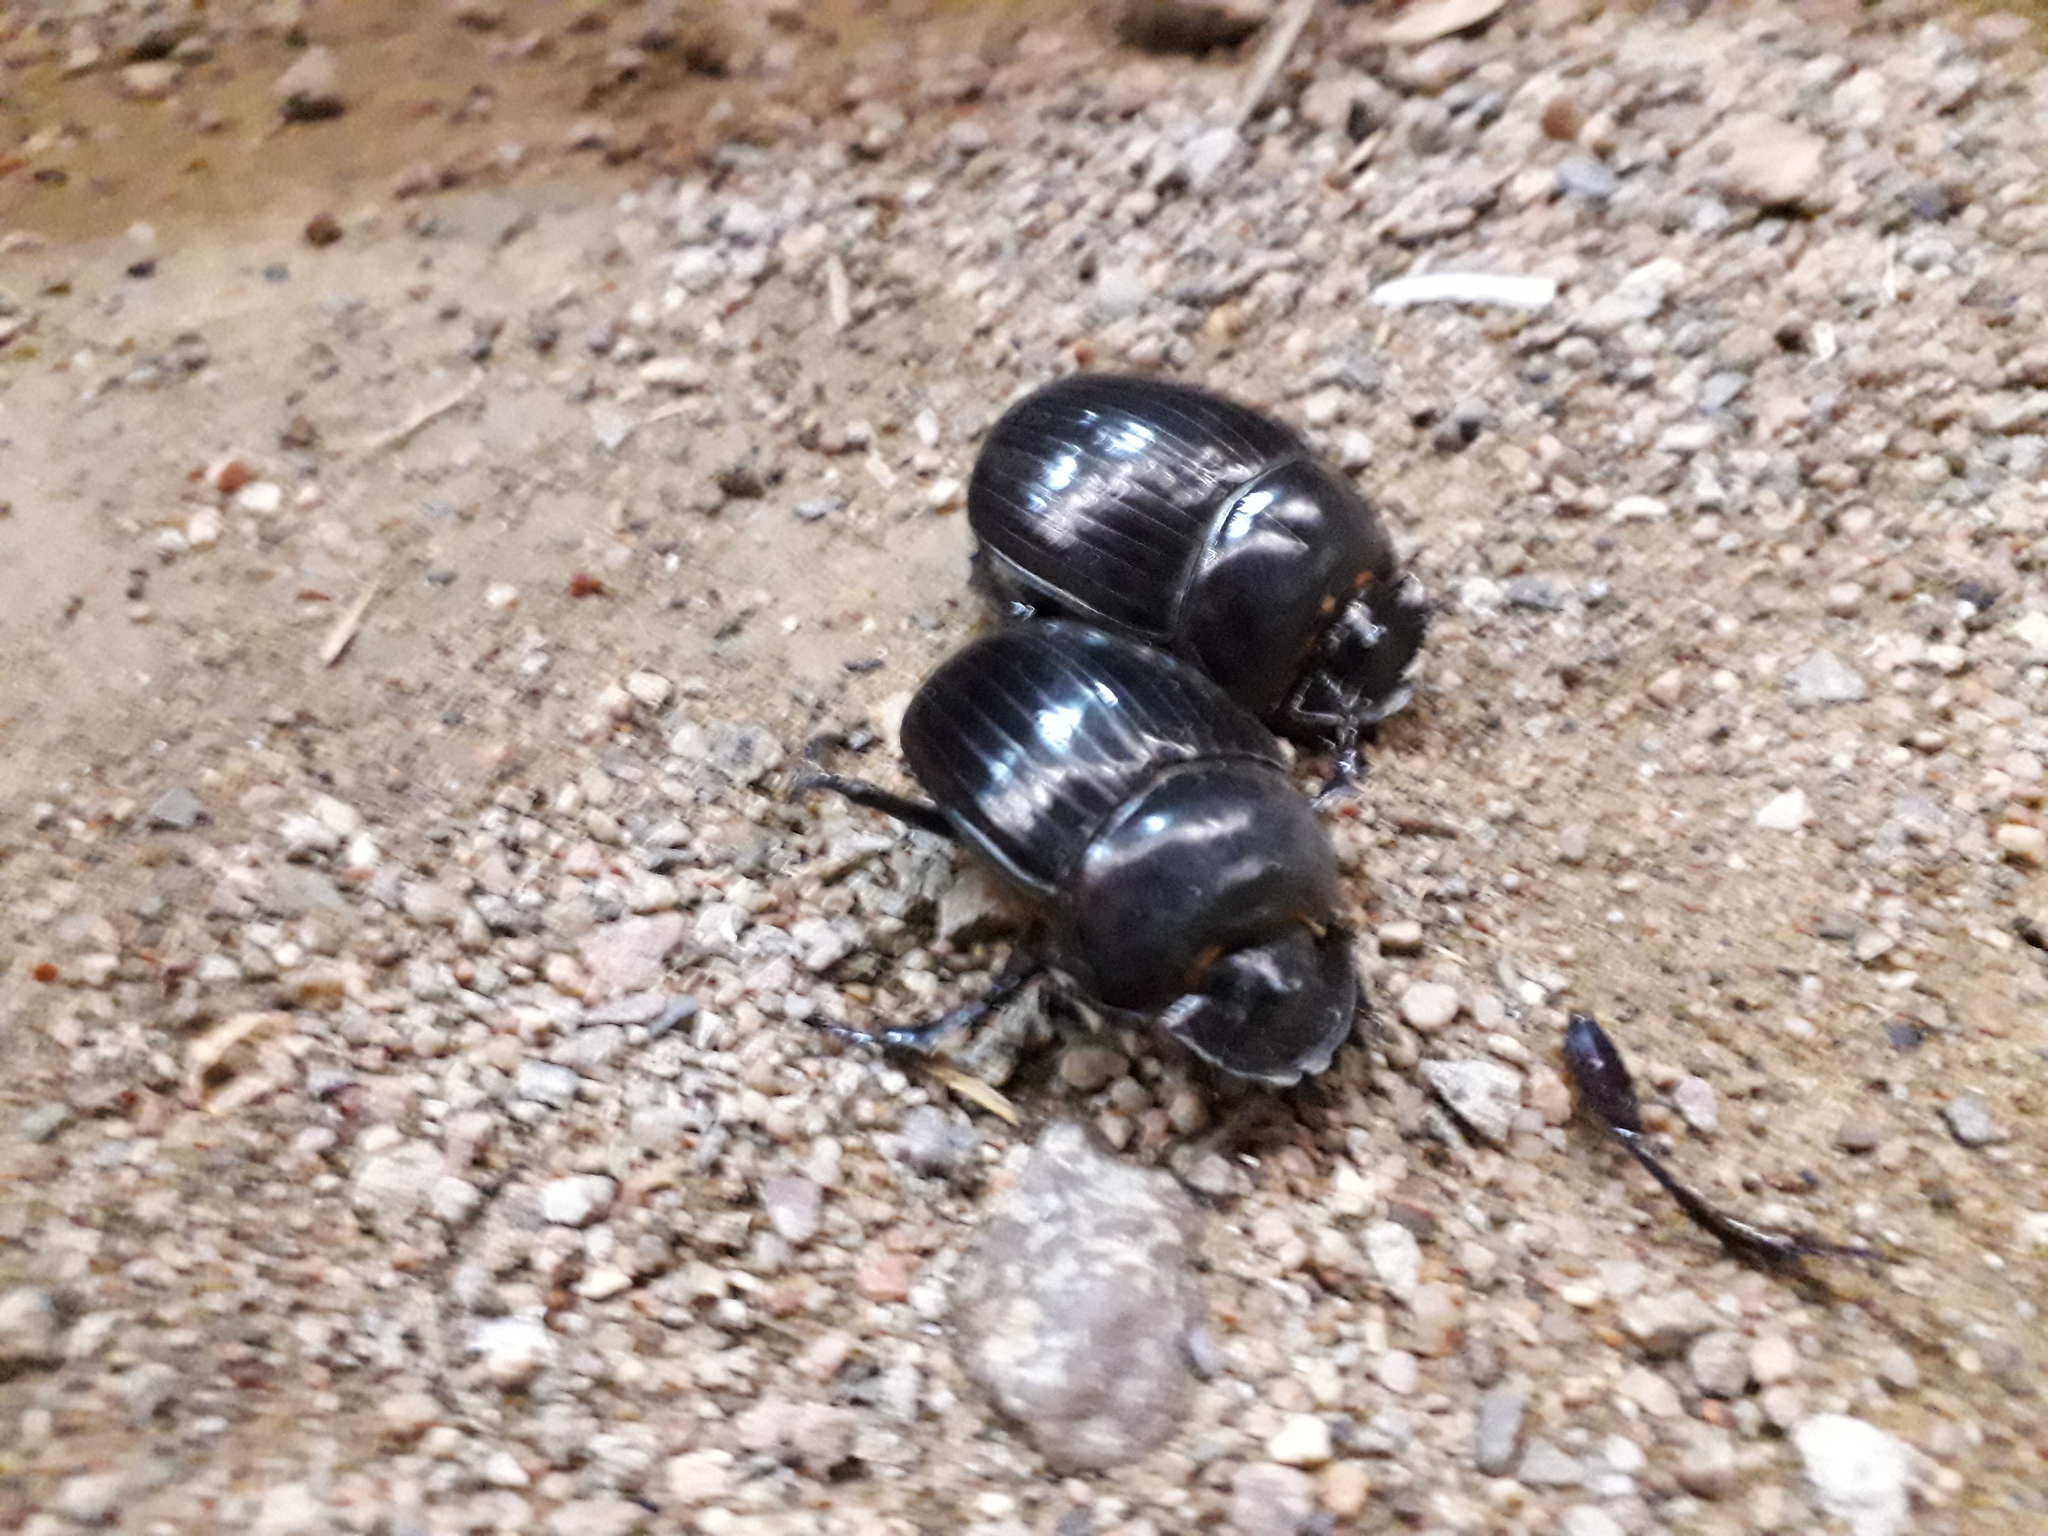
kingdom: Animalia
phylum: Arthropoda
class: Insecta
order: Coleoptera
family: Scarabaeidae
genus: Synapsis
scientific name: Synapsis tmolus
